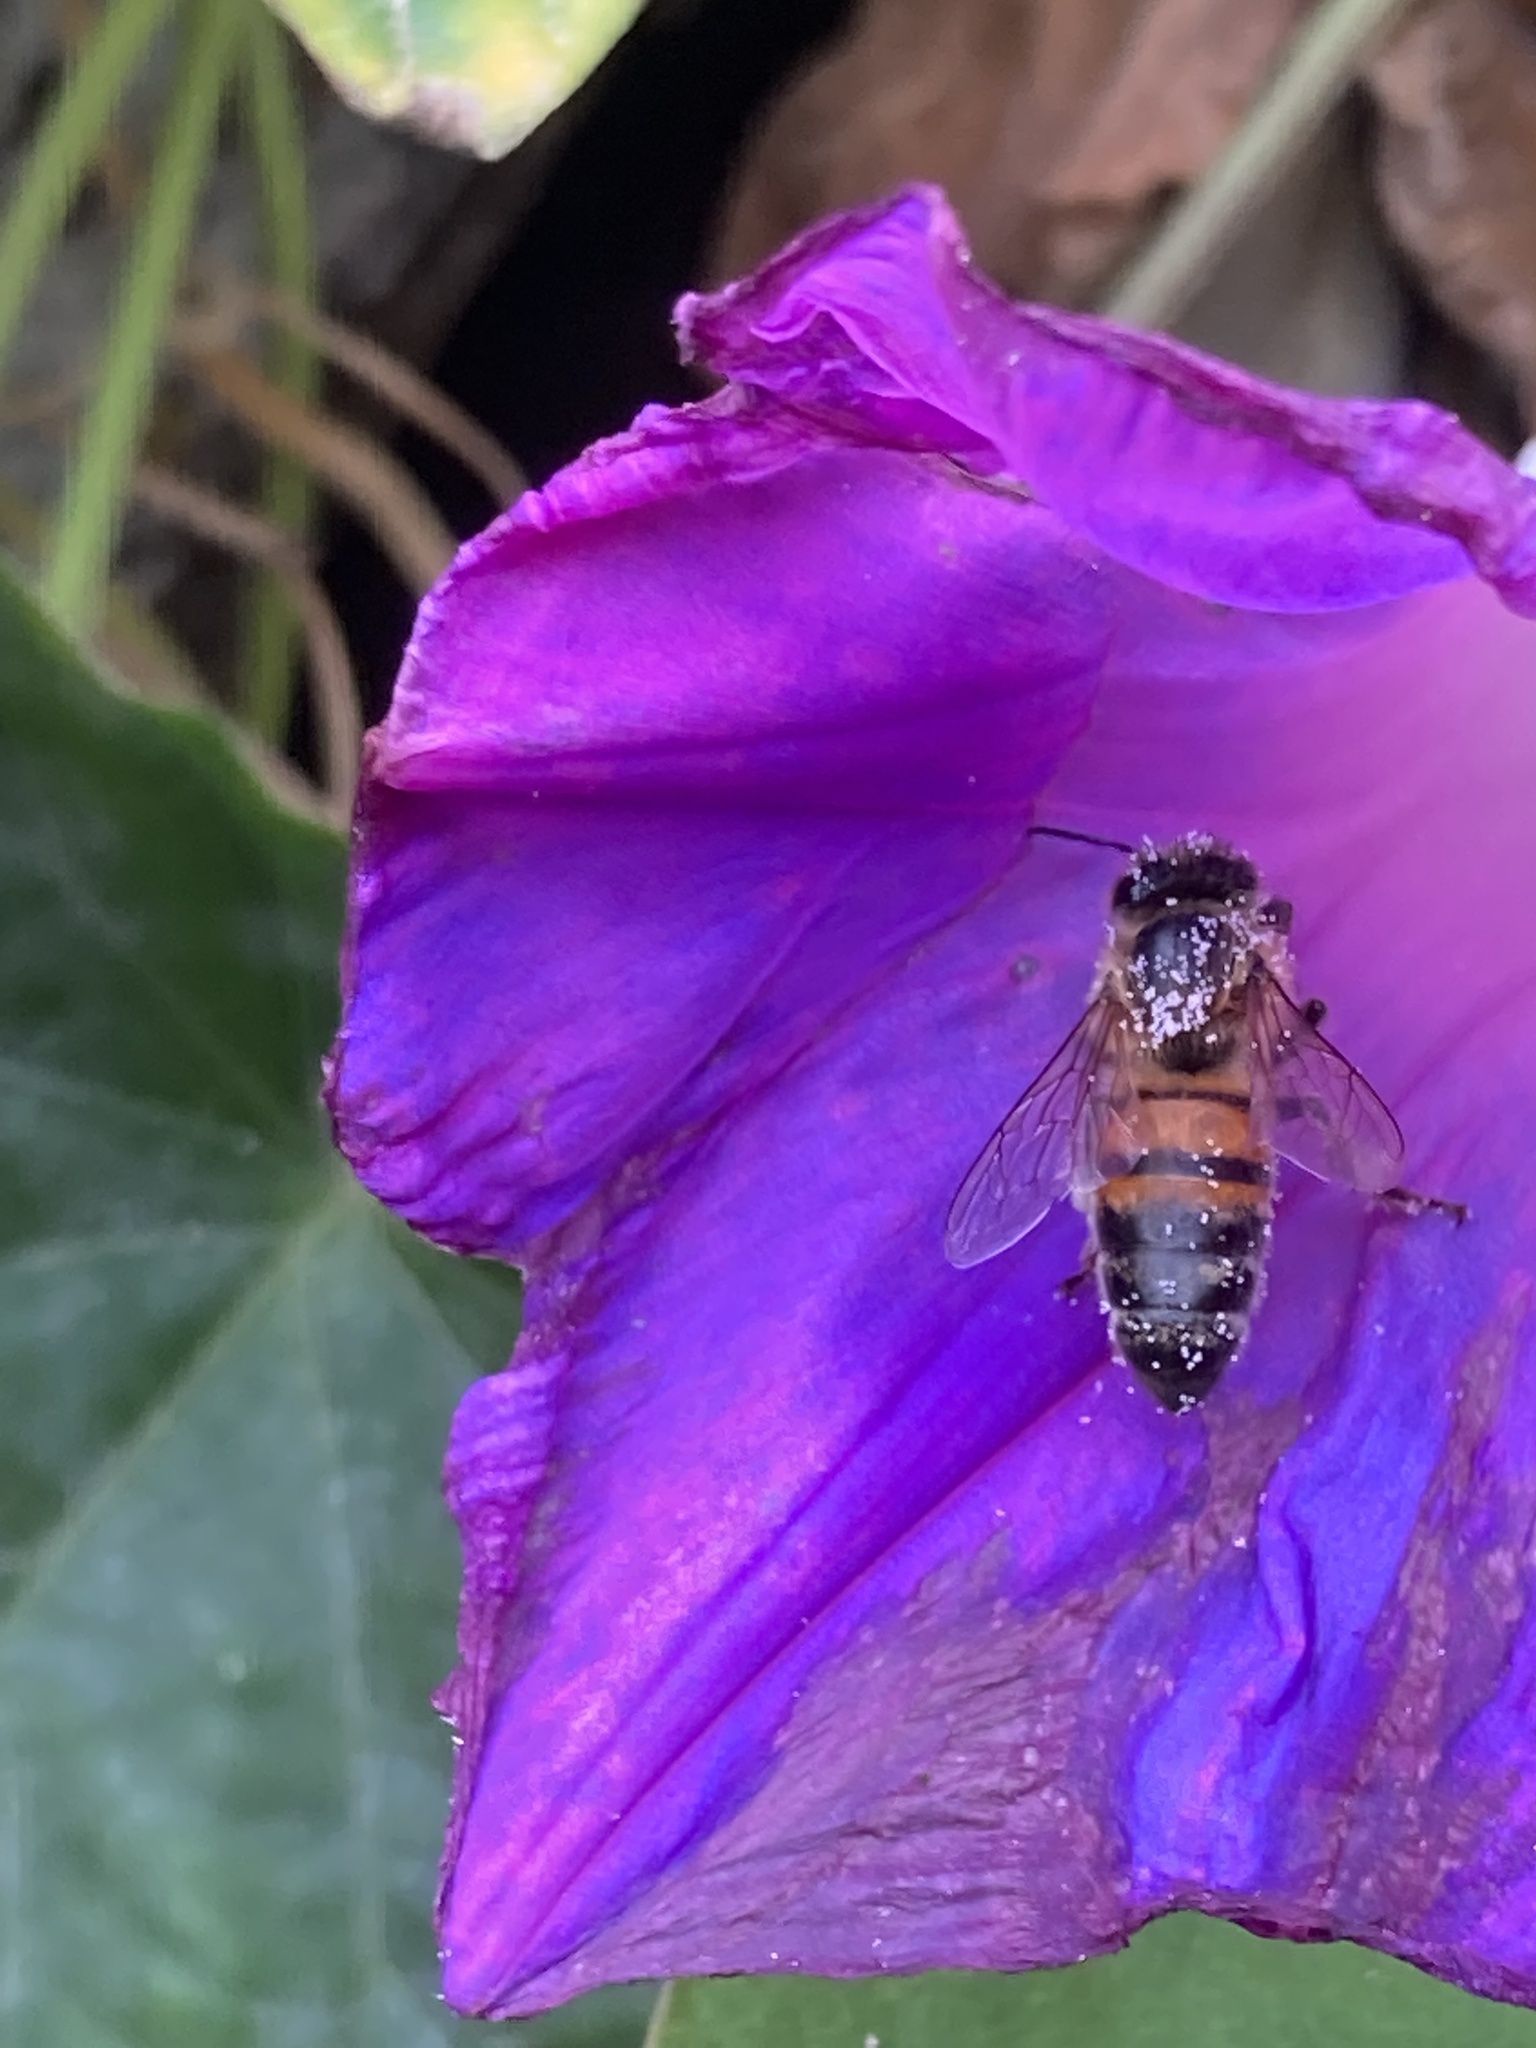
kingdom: Animalia
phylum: Arthropoda
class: Insecta
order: Hymenoptera
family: Apidae
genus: Apis
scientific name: Apis mellifera
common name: Honey bee
